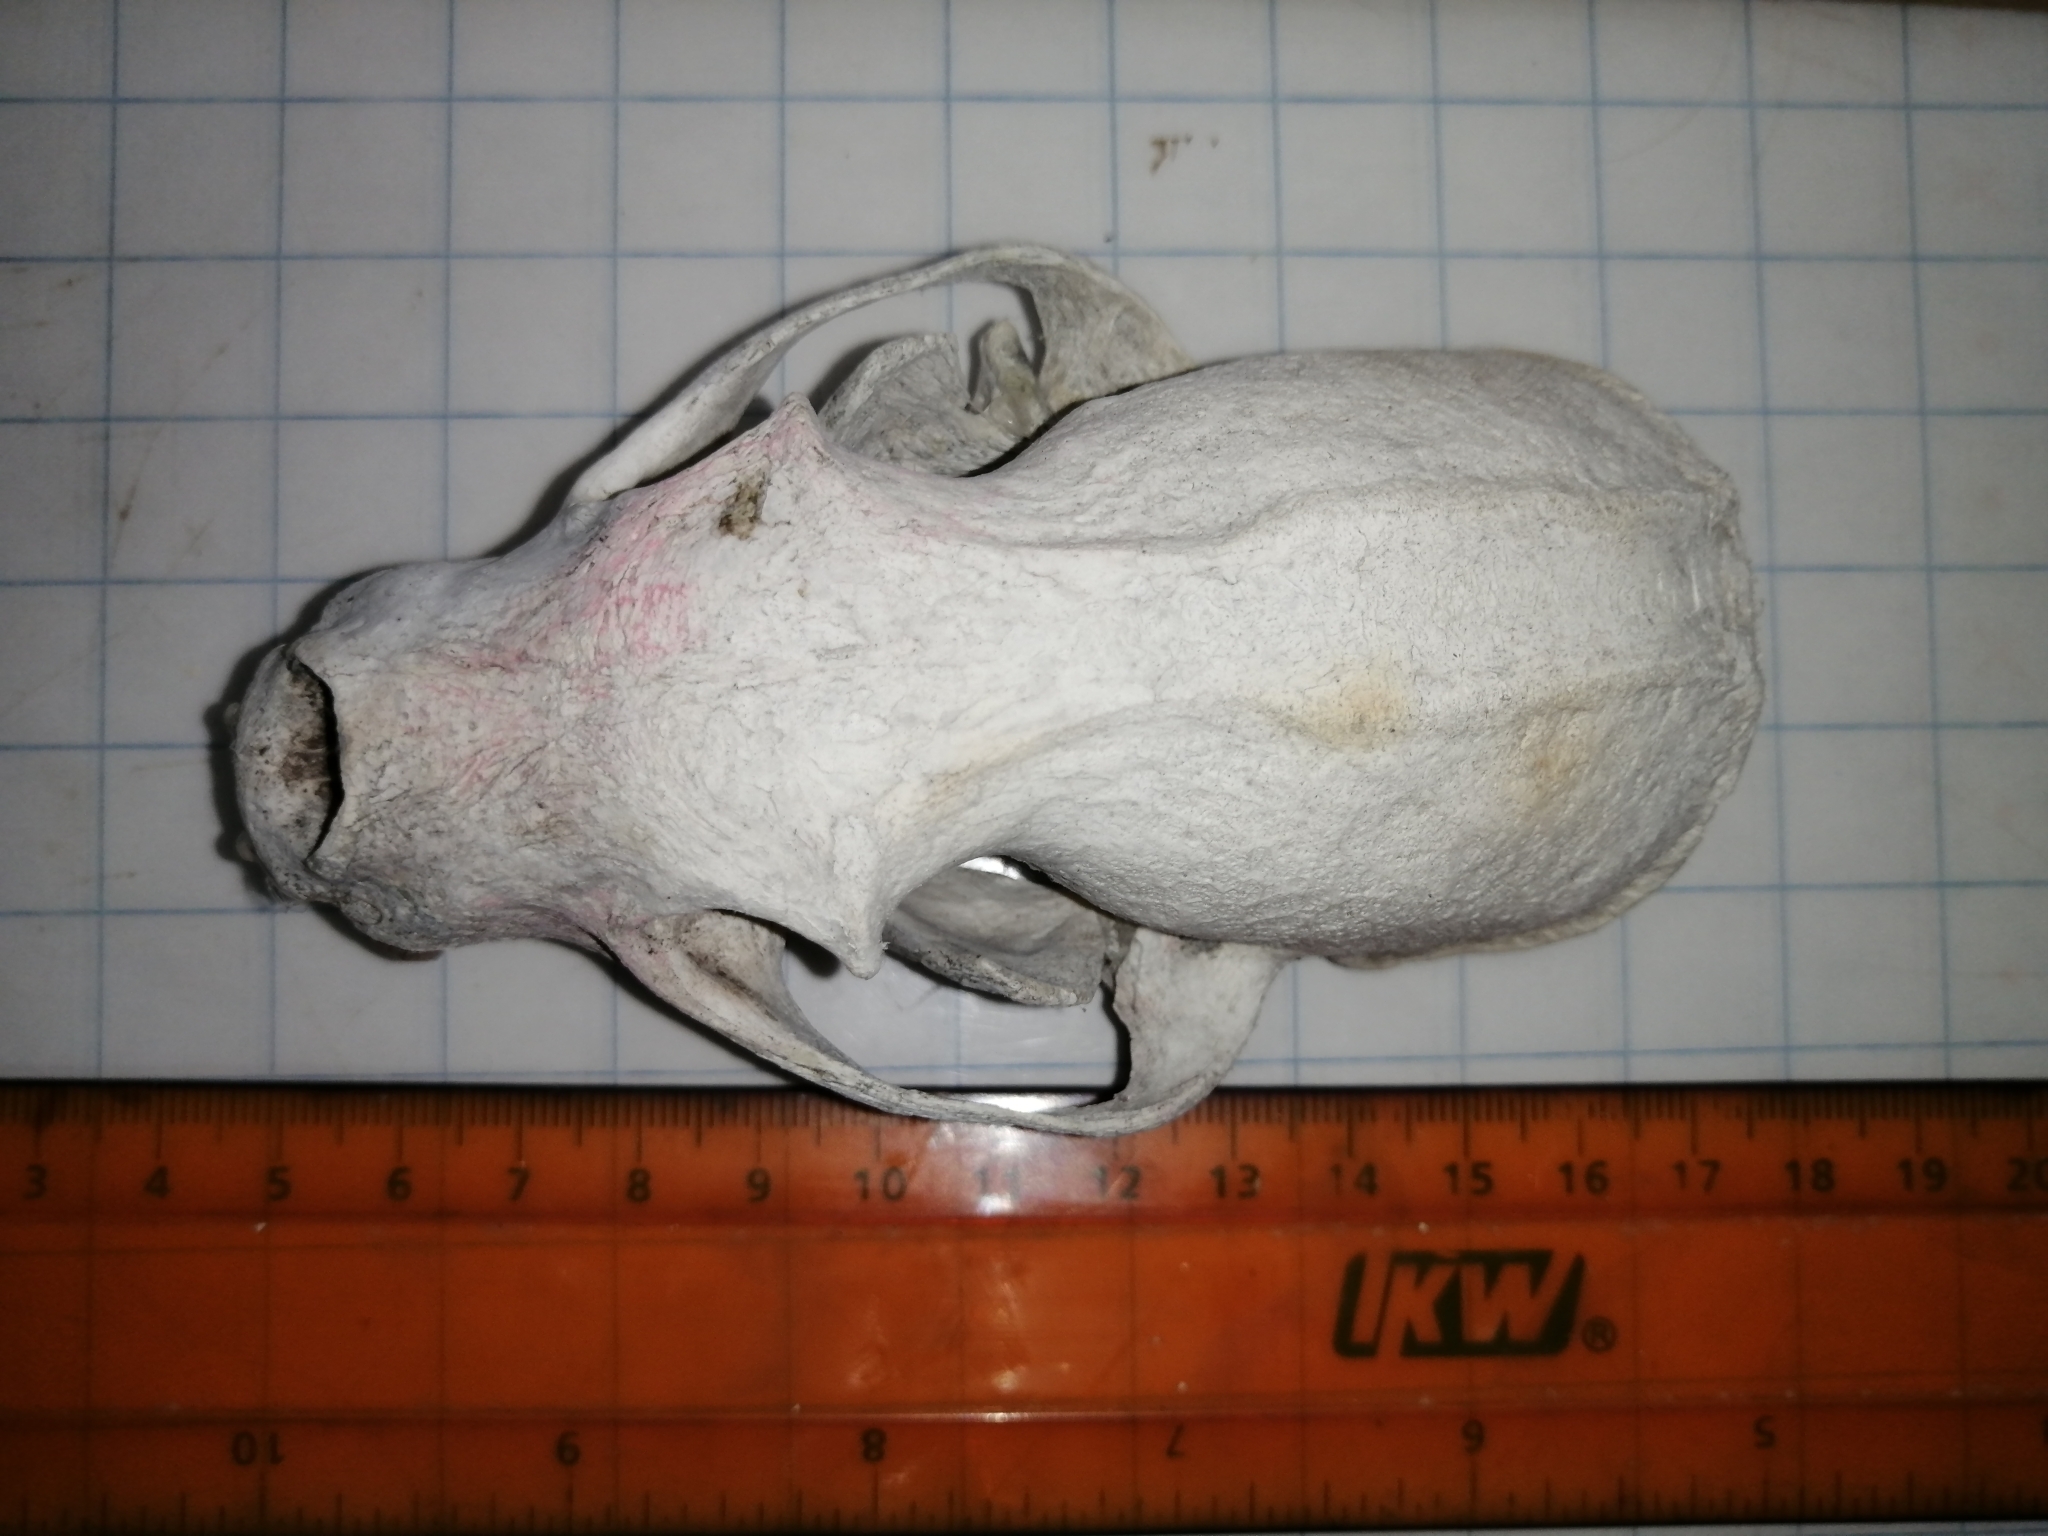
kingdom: Animalia
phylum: Chordata
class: Mammalia
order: Carnivora
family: Mustelidae
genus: Eira
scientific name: Eira barbara
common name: Tayra
